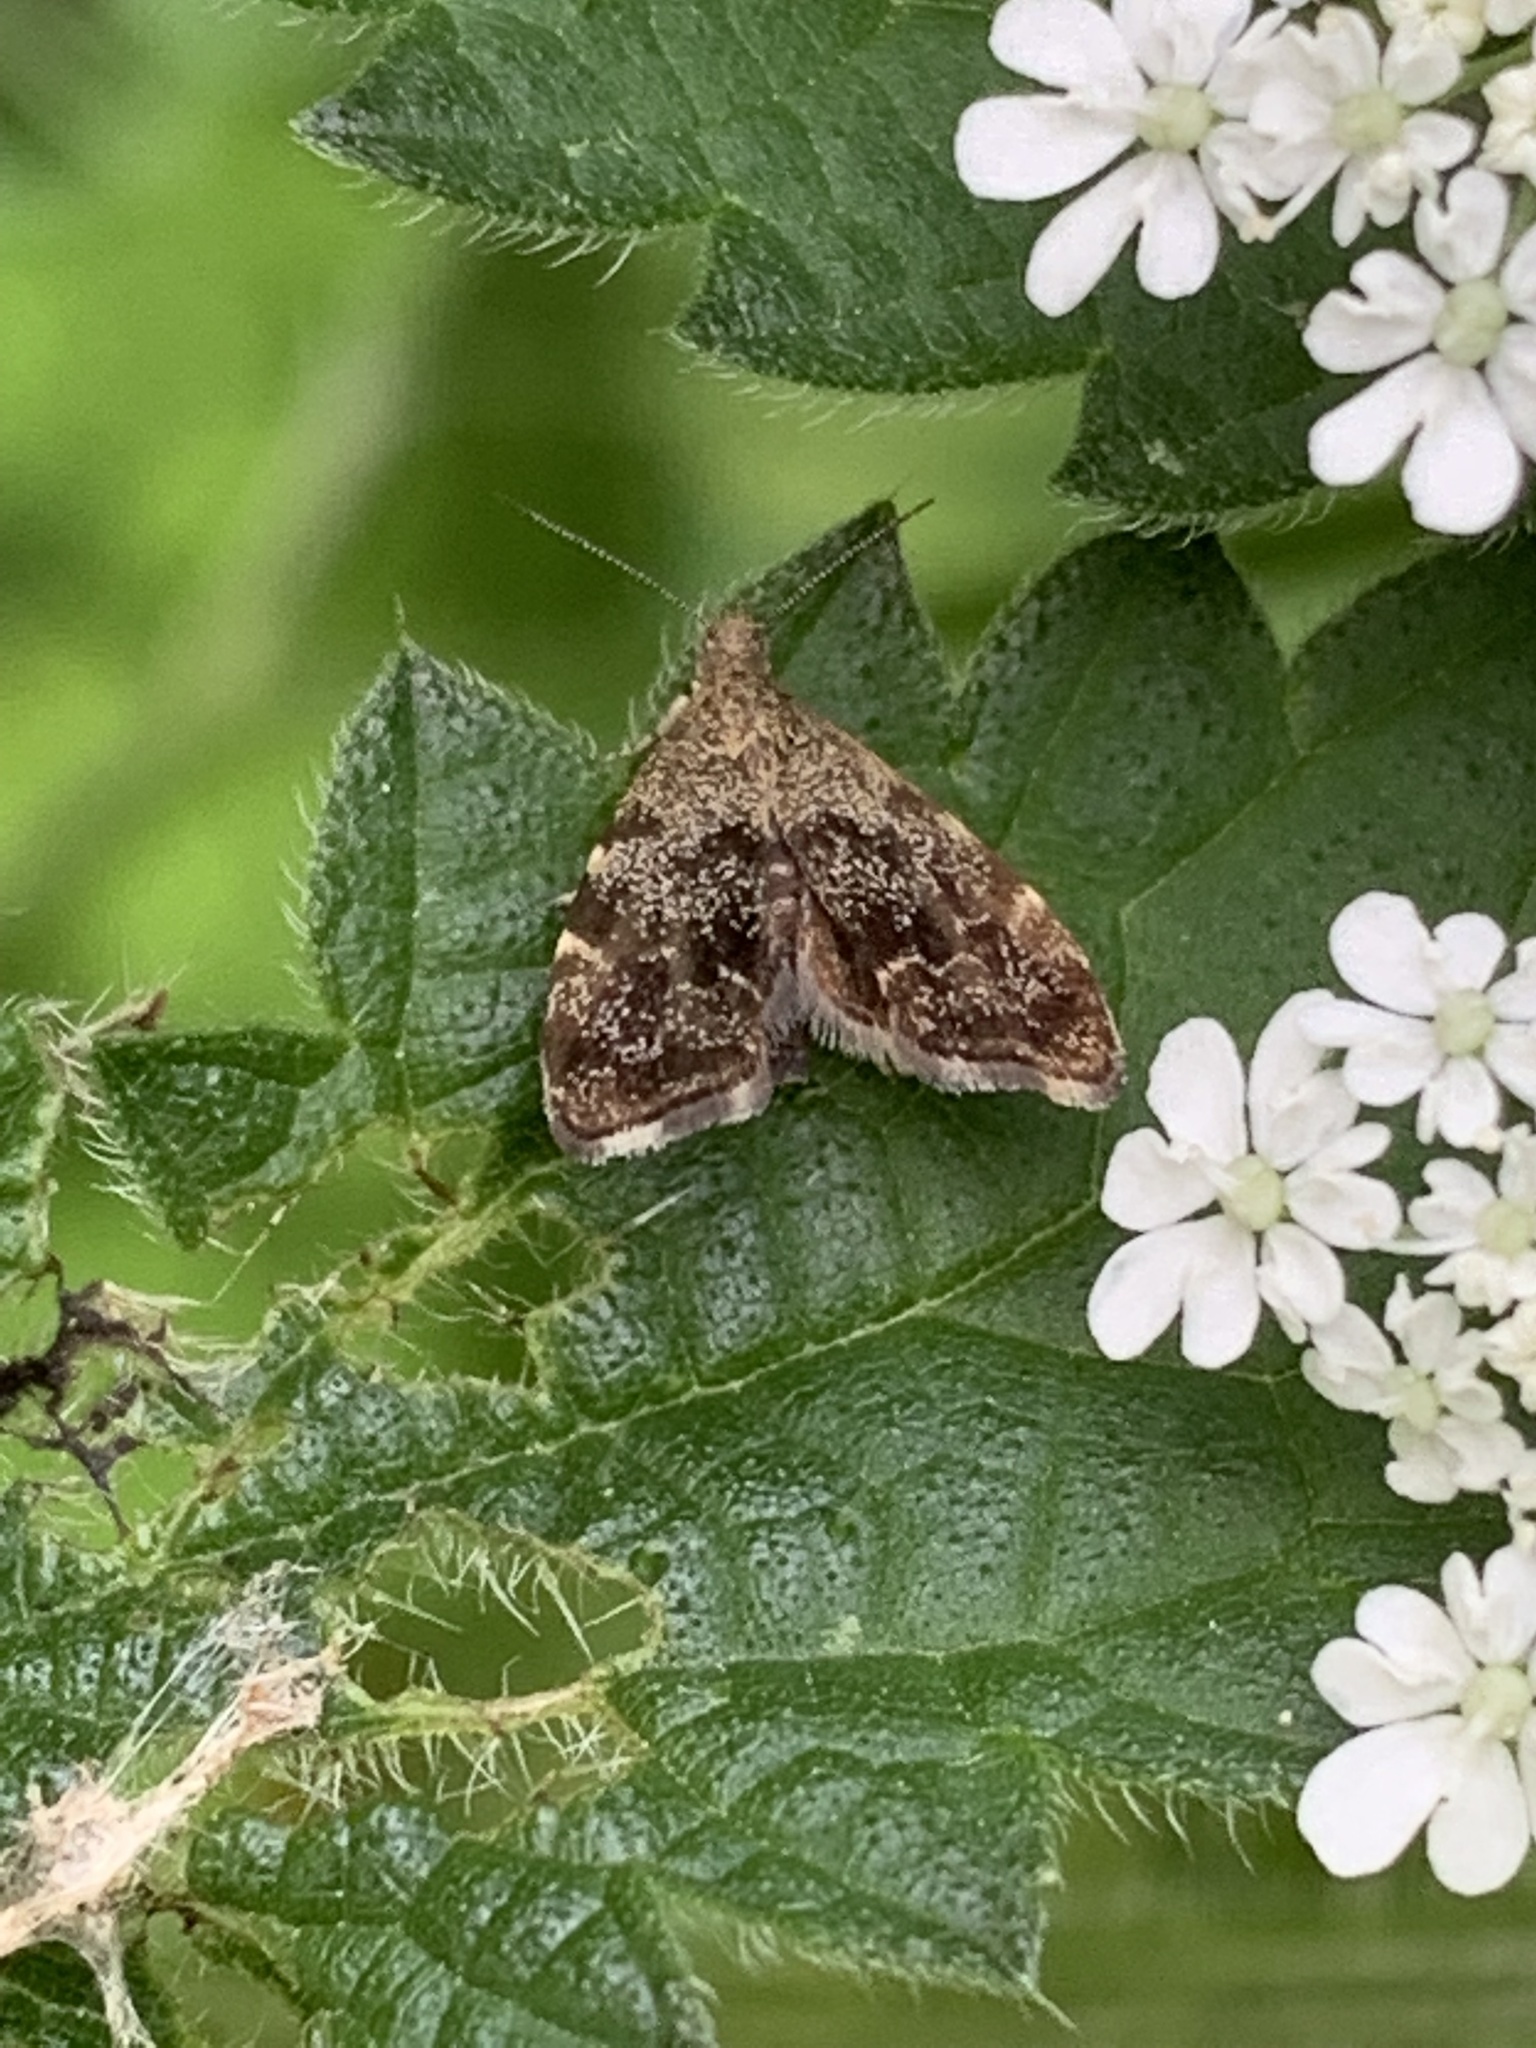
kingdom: Animalia
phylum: Arthropoda
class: Insecta
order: Lepidoptera
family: Choreutidae
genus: Anthophila
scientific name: Anthophila fabriciana
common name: Nettle-tap
